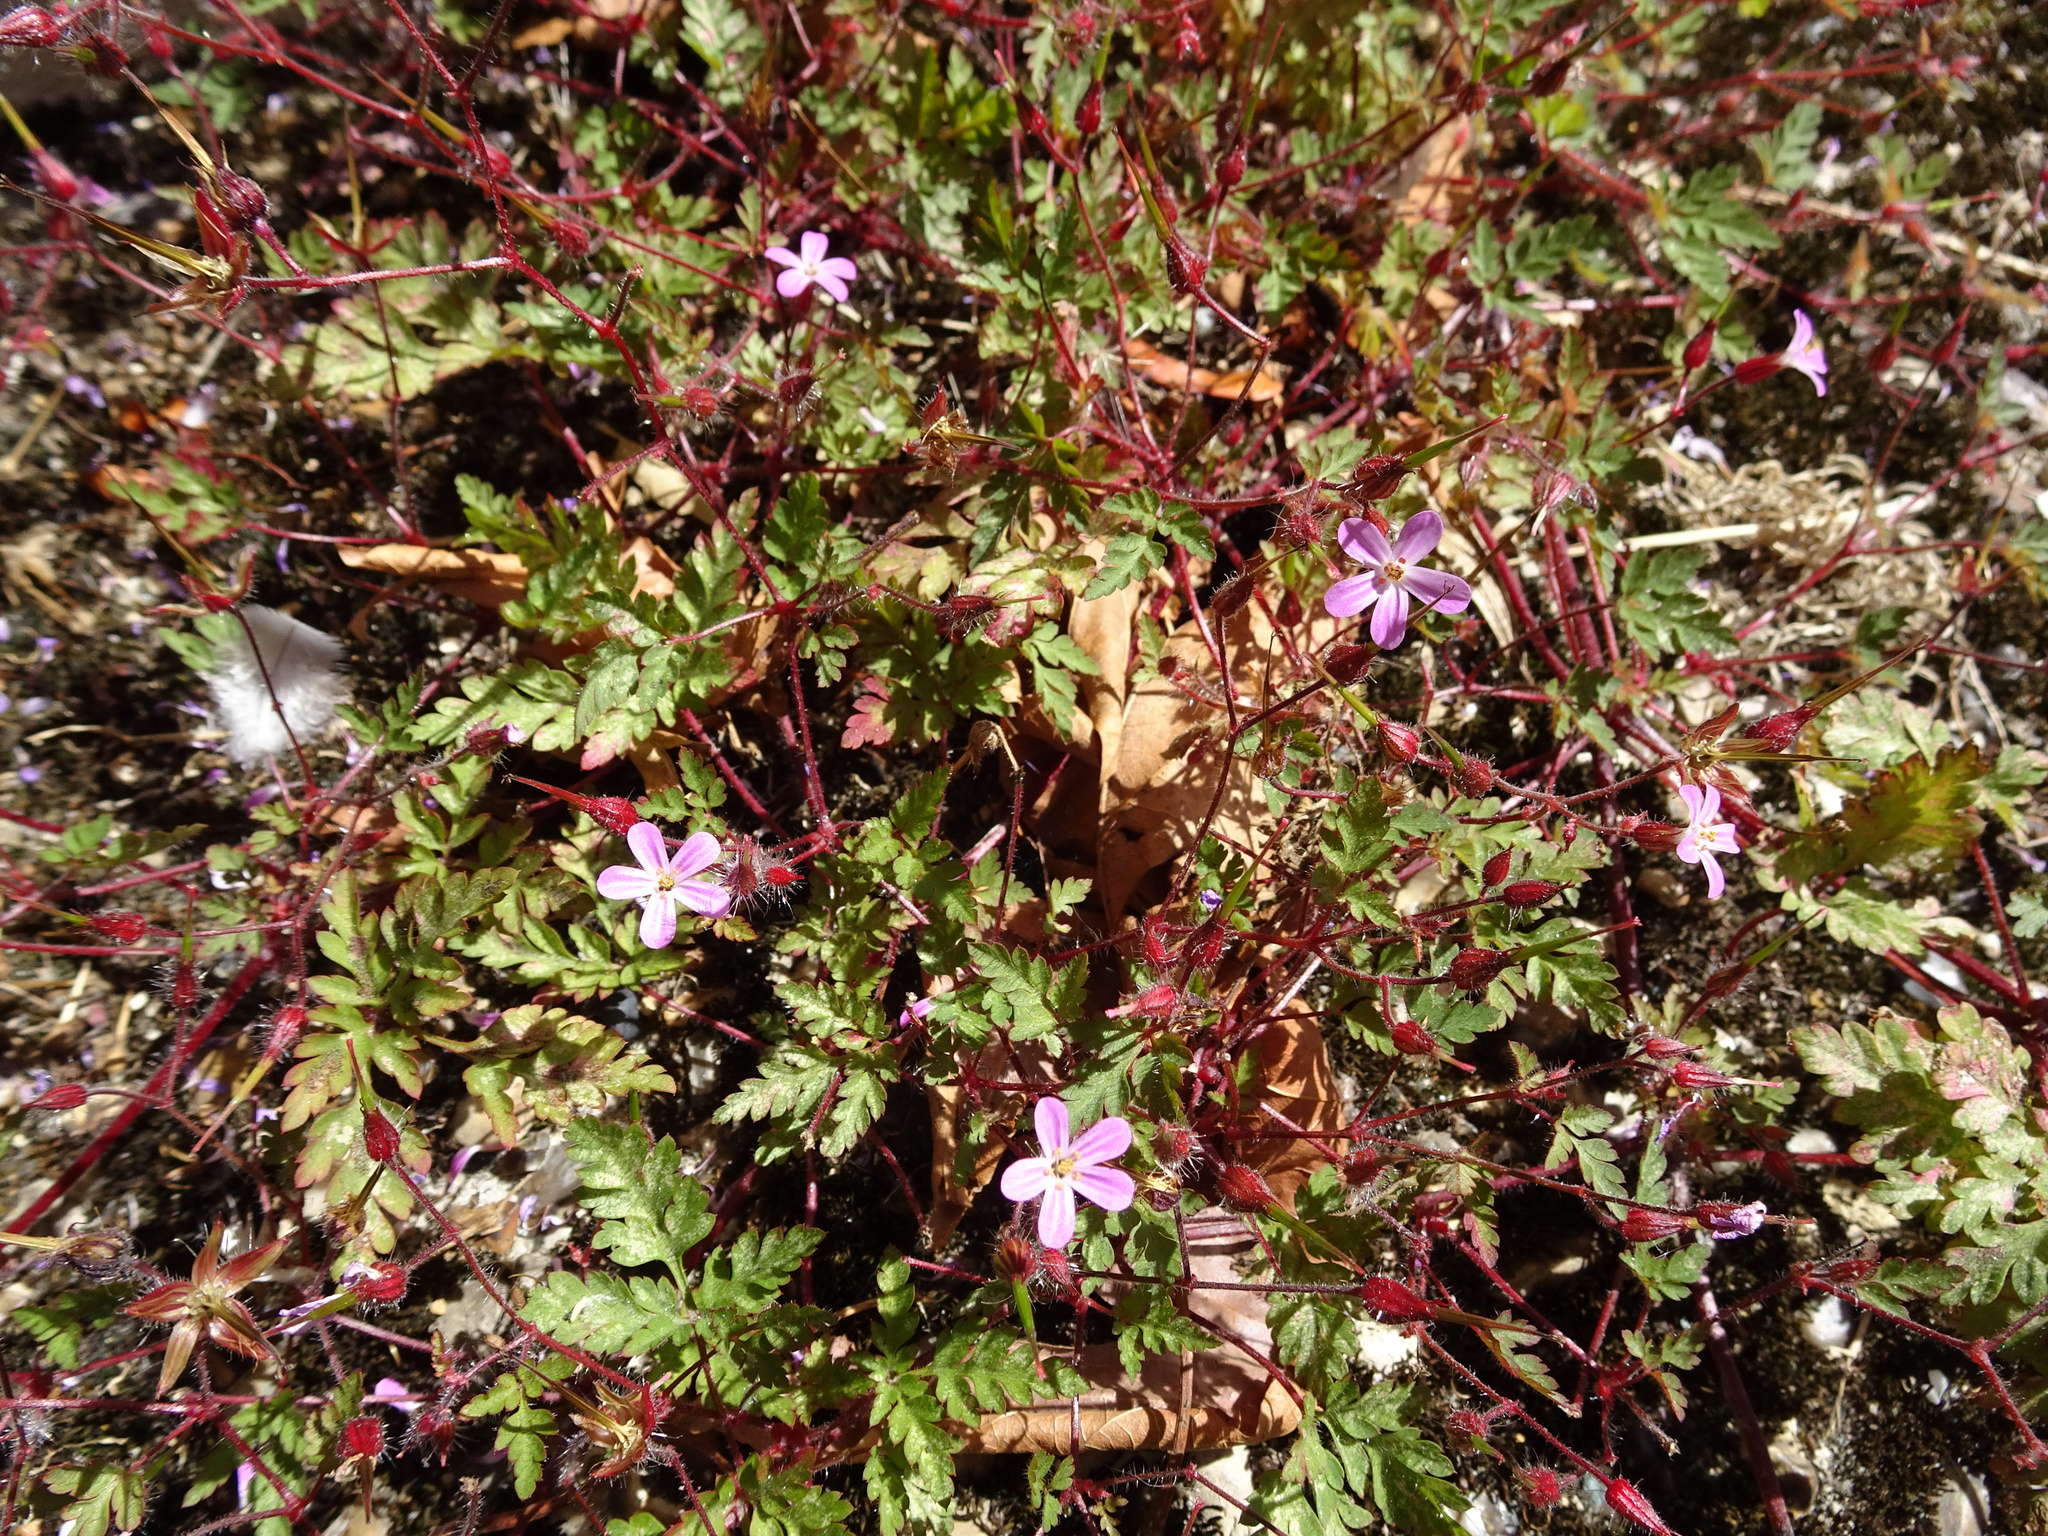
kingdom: Plantae
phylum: Tracheophyta
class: Magnoliopsida
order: Geraniales
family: Geraniaceae
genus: Geranium
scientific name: Geranium robertianum
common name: Herb-robert
